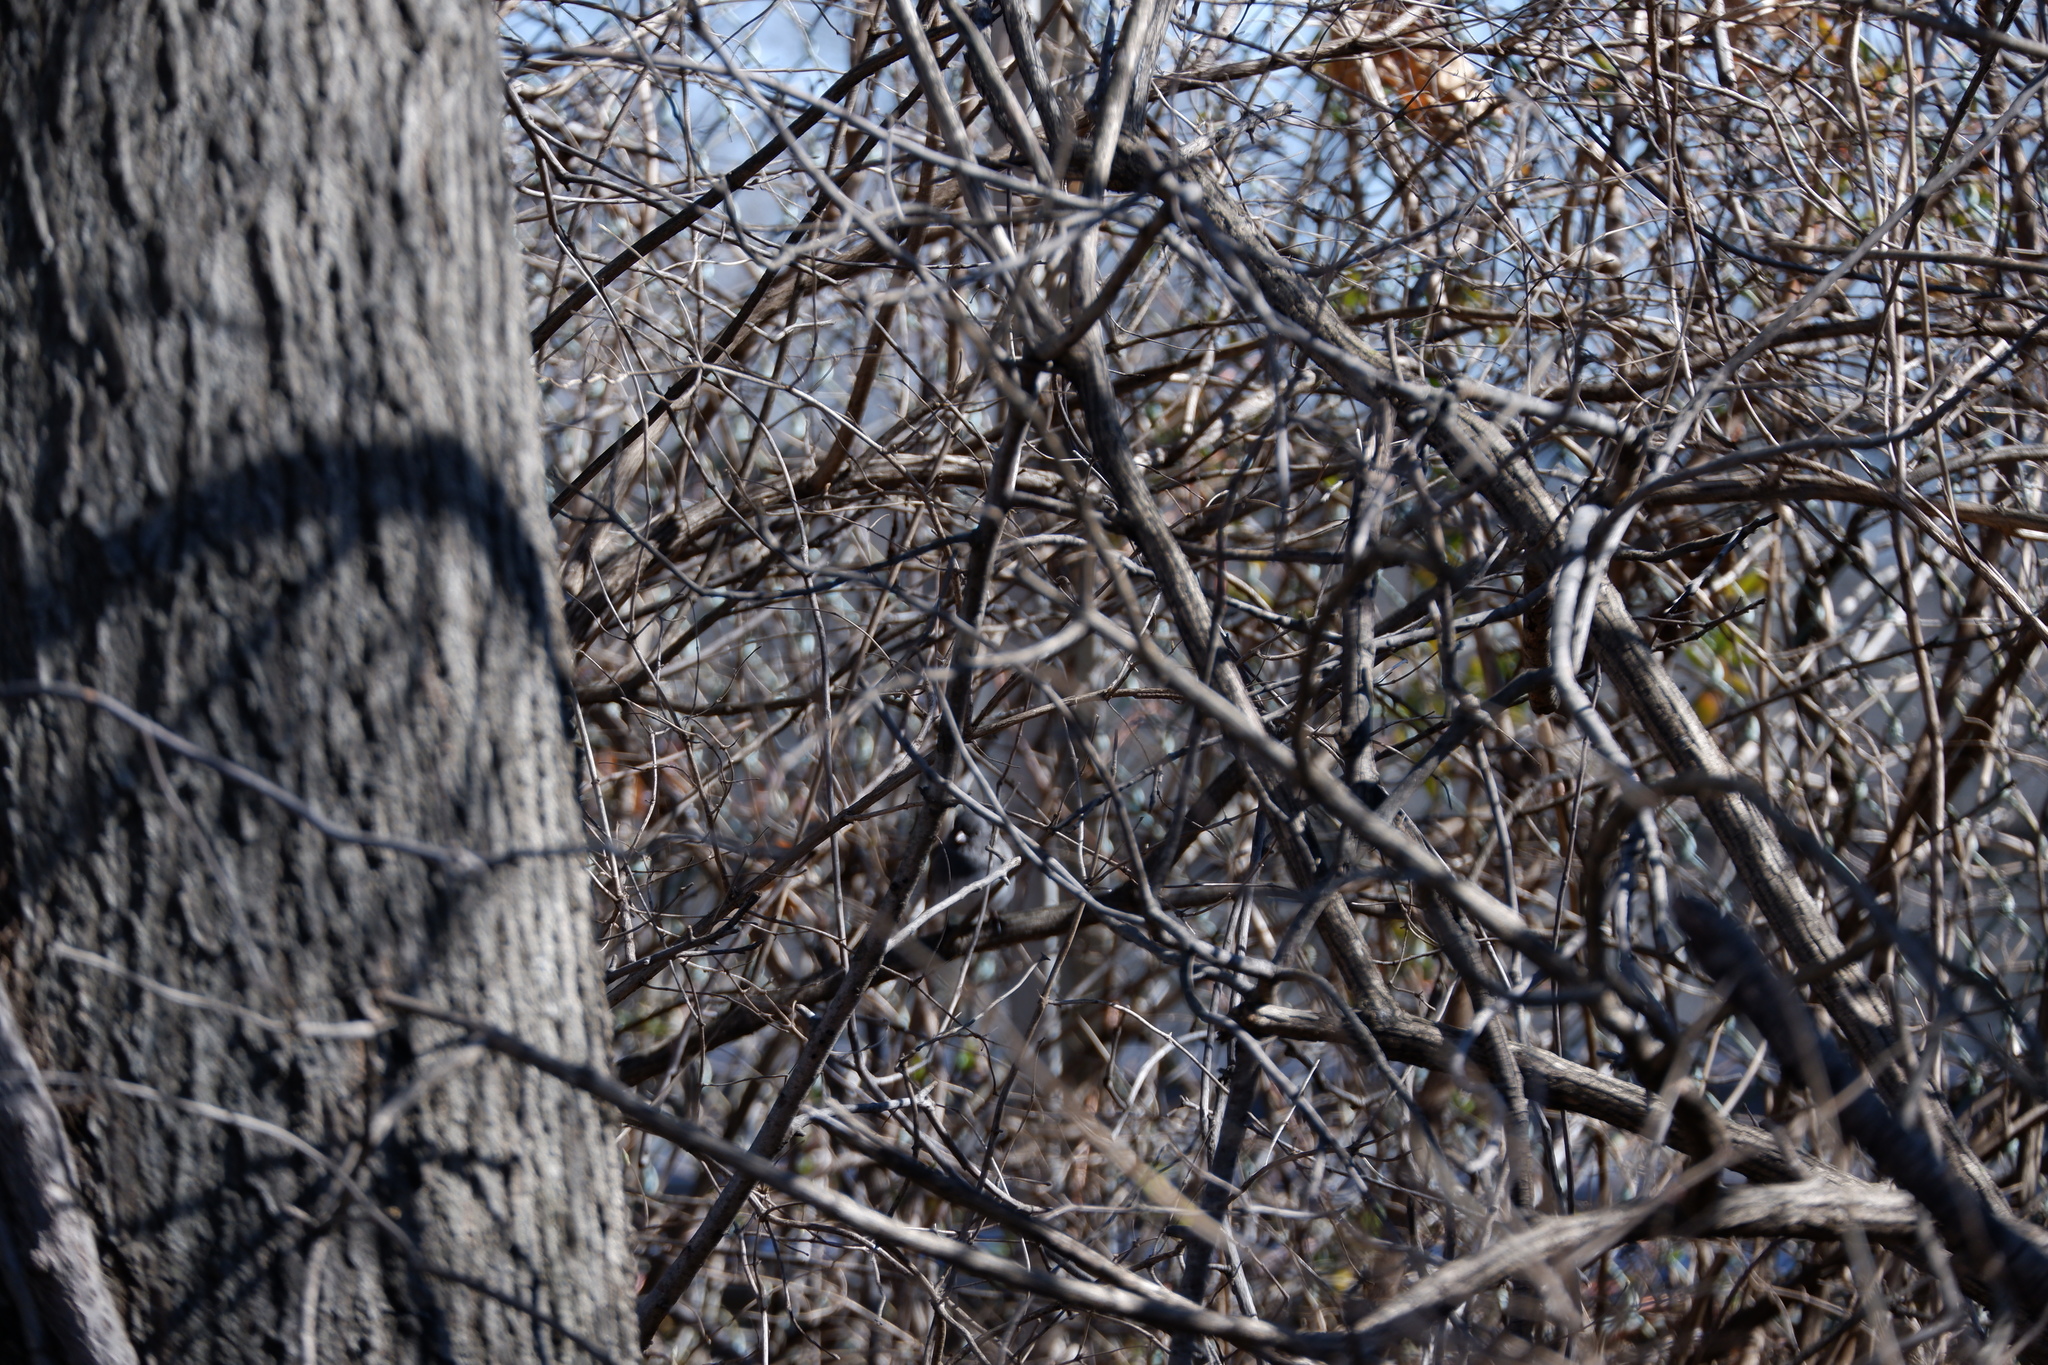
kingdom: Animalia
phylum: Chordata
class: Aves
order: Passeriformes
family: Passerellidae
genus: Junco
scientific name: Junco hyemalis
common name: Dark-eyed junco
